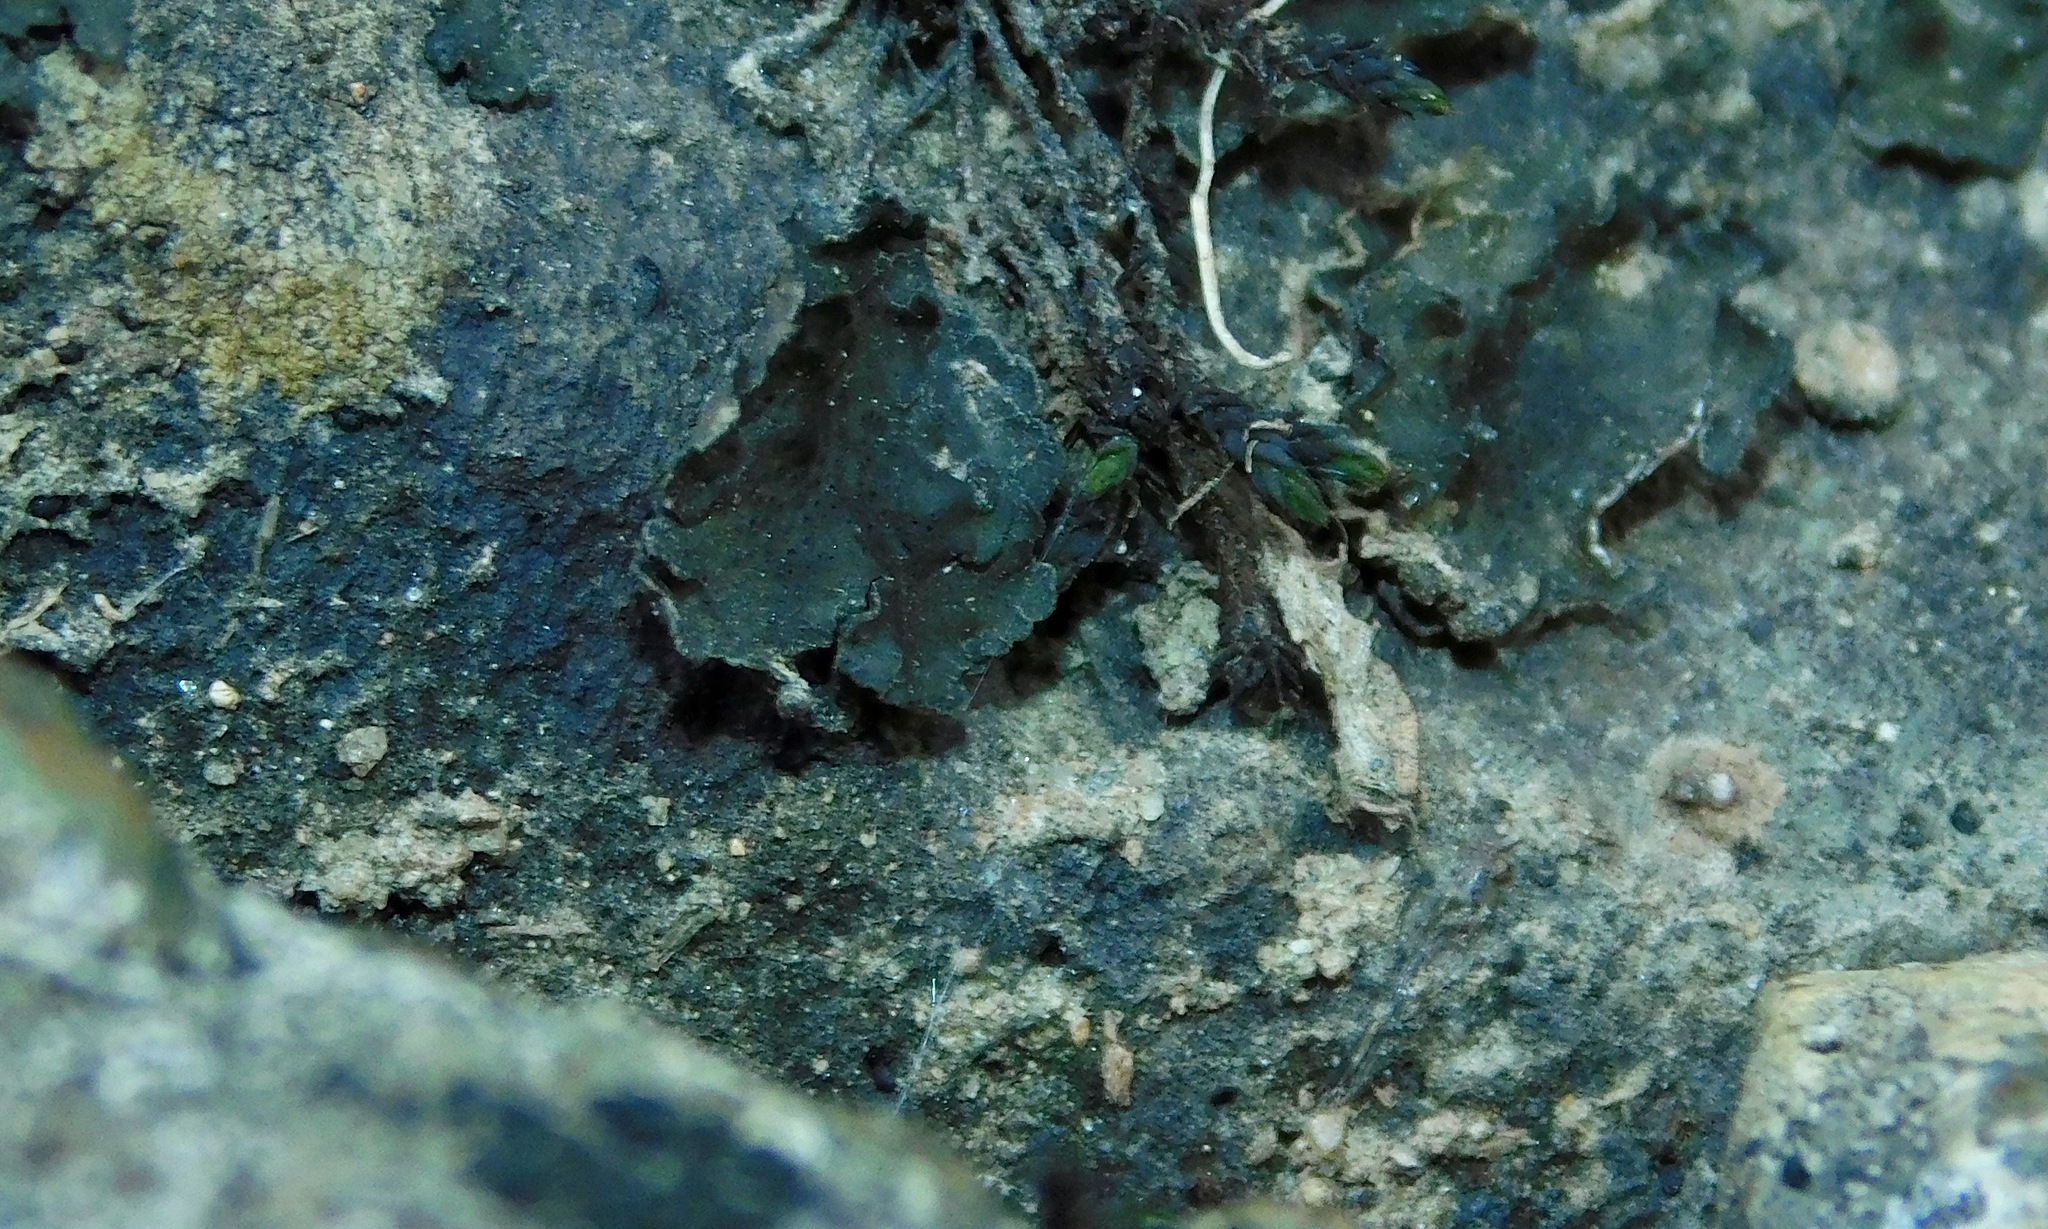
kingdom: Fungi
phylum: Ascomycota
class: Lichinomycetes
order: Lichinales
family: Peltulaceae
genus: Peltula
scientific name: Peltula euploca
